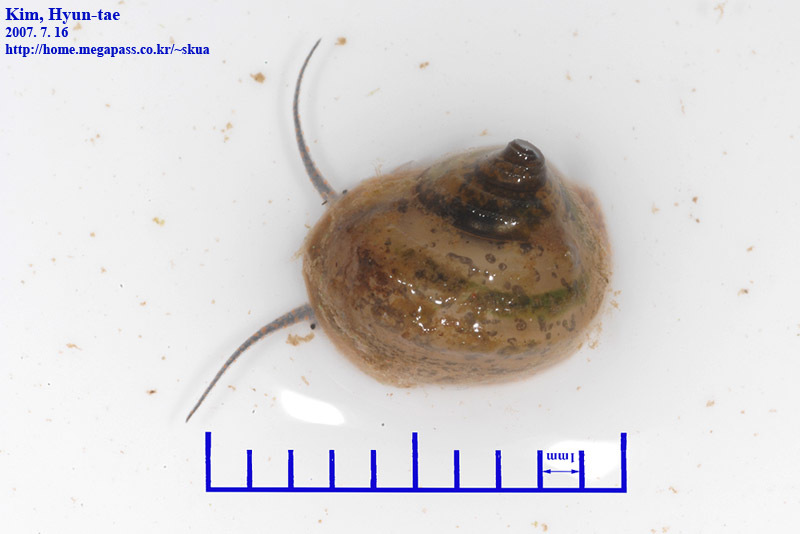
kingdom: Animalia
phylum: Mollusca
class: Gastropoda
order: Architaenioglossa
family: Viviparidae
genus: Cipangopaludina
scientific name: Cipangopaludina chinensis
